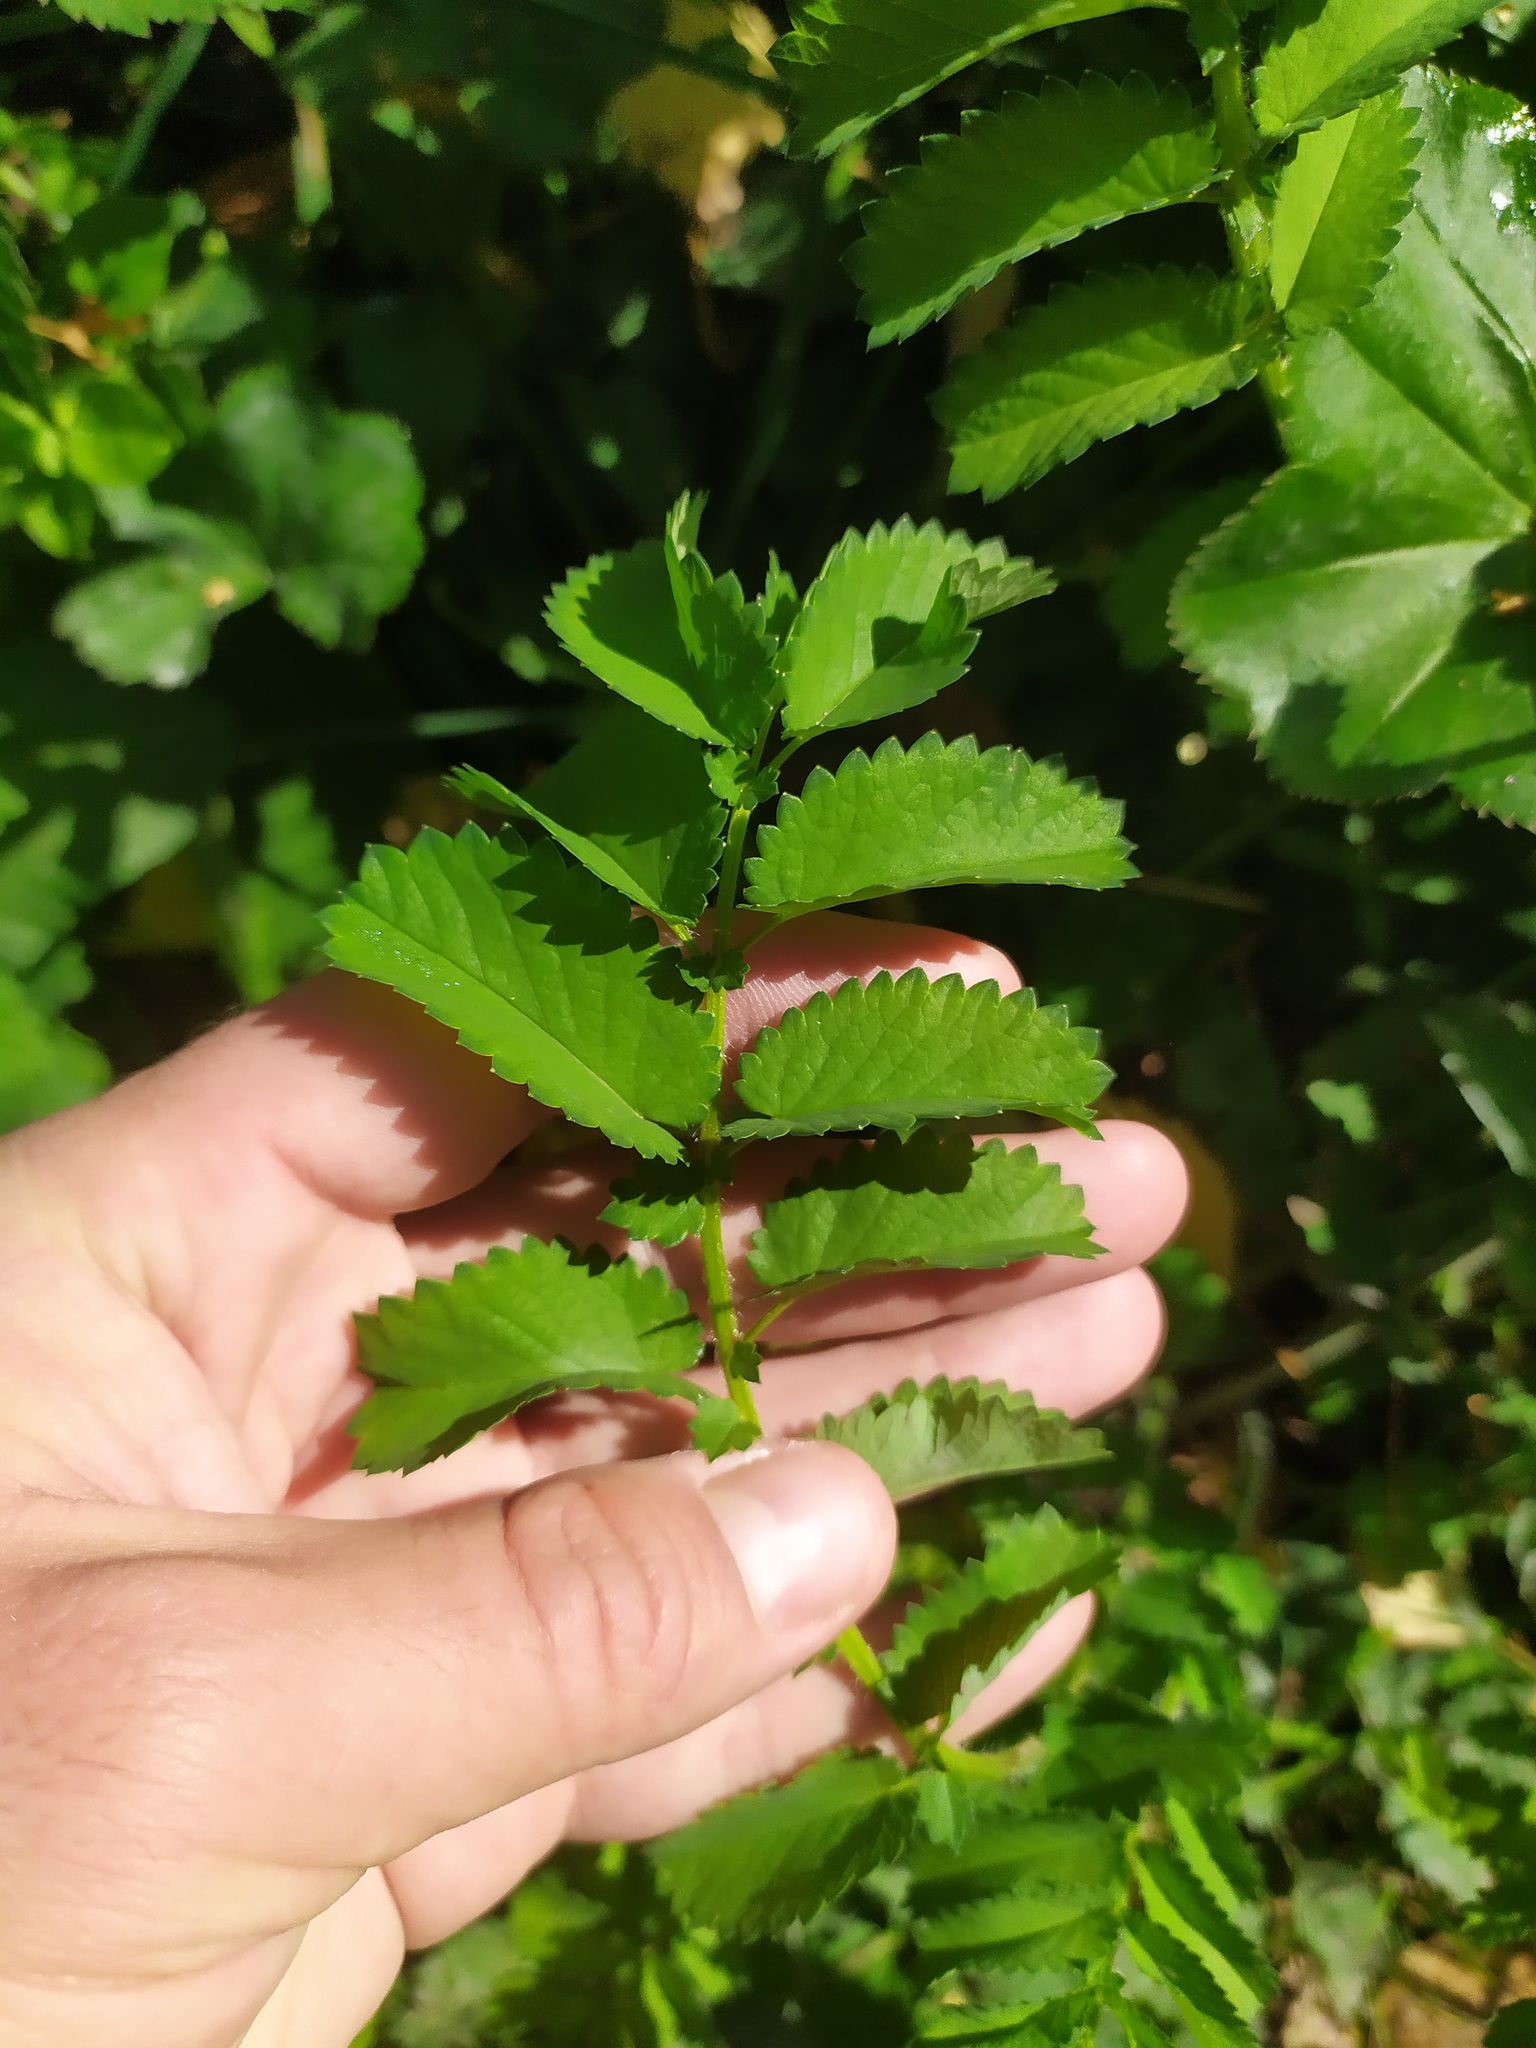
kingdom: Plantae
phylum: Tracheophyta
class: Magnoliopsida
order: Rosales
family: Rosaceae
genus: Sanguisorba
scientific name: Sanguisorba officinalis
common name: Great burnet
